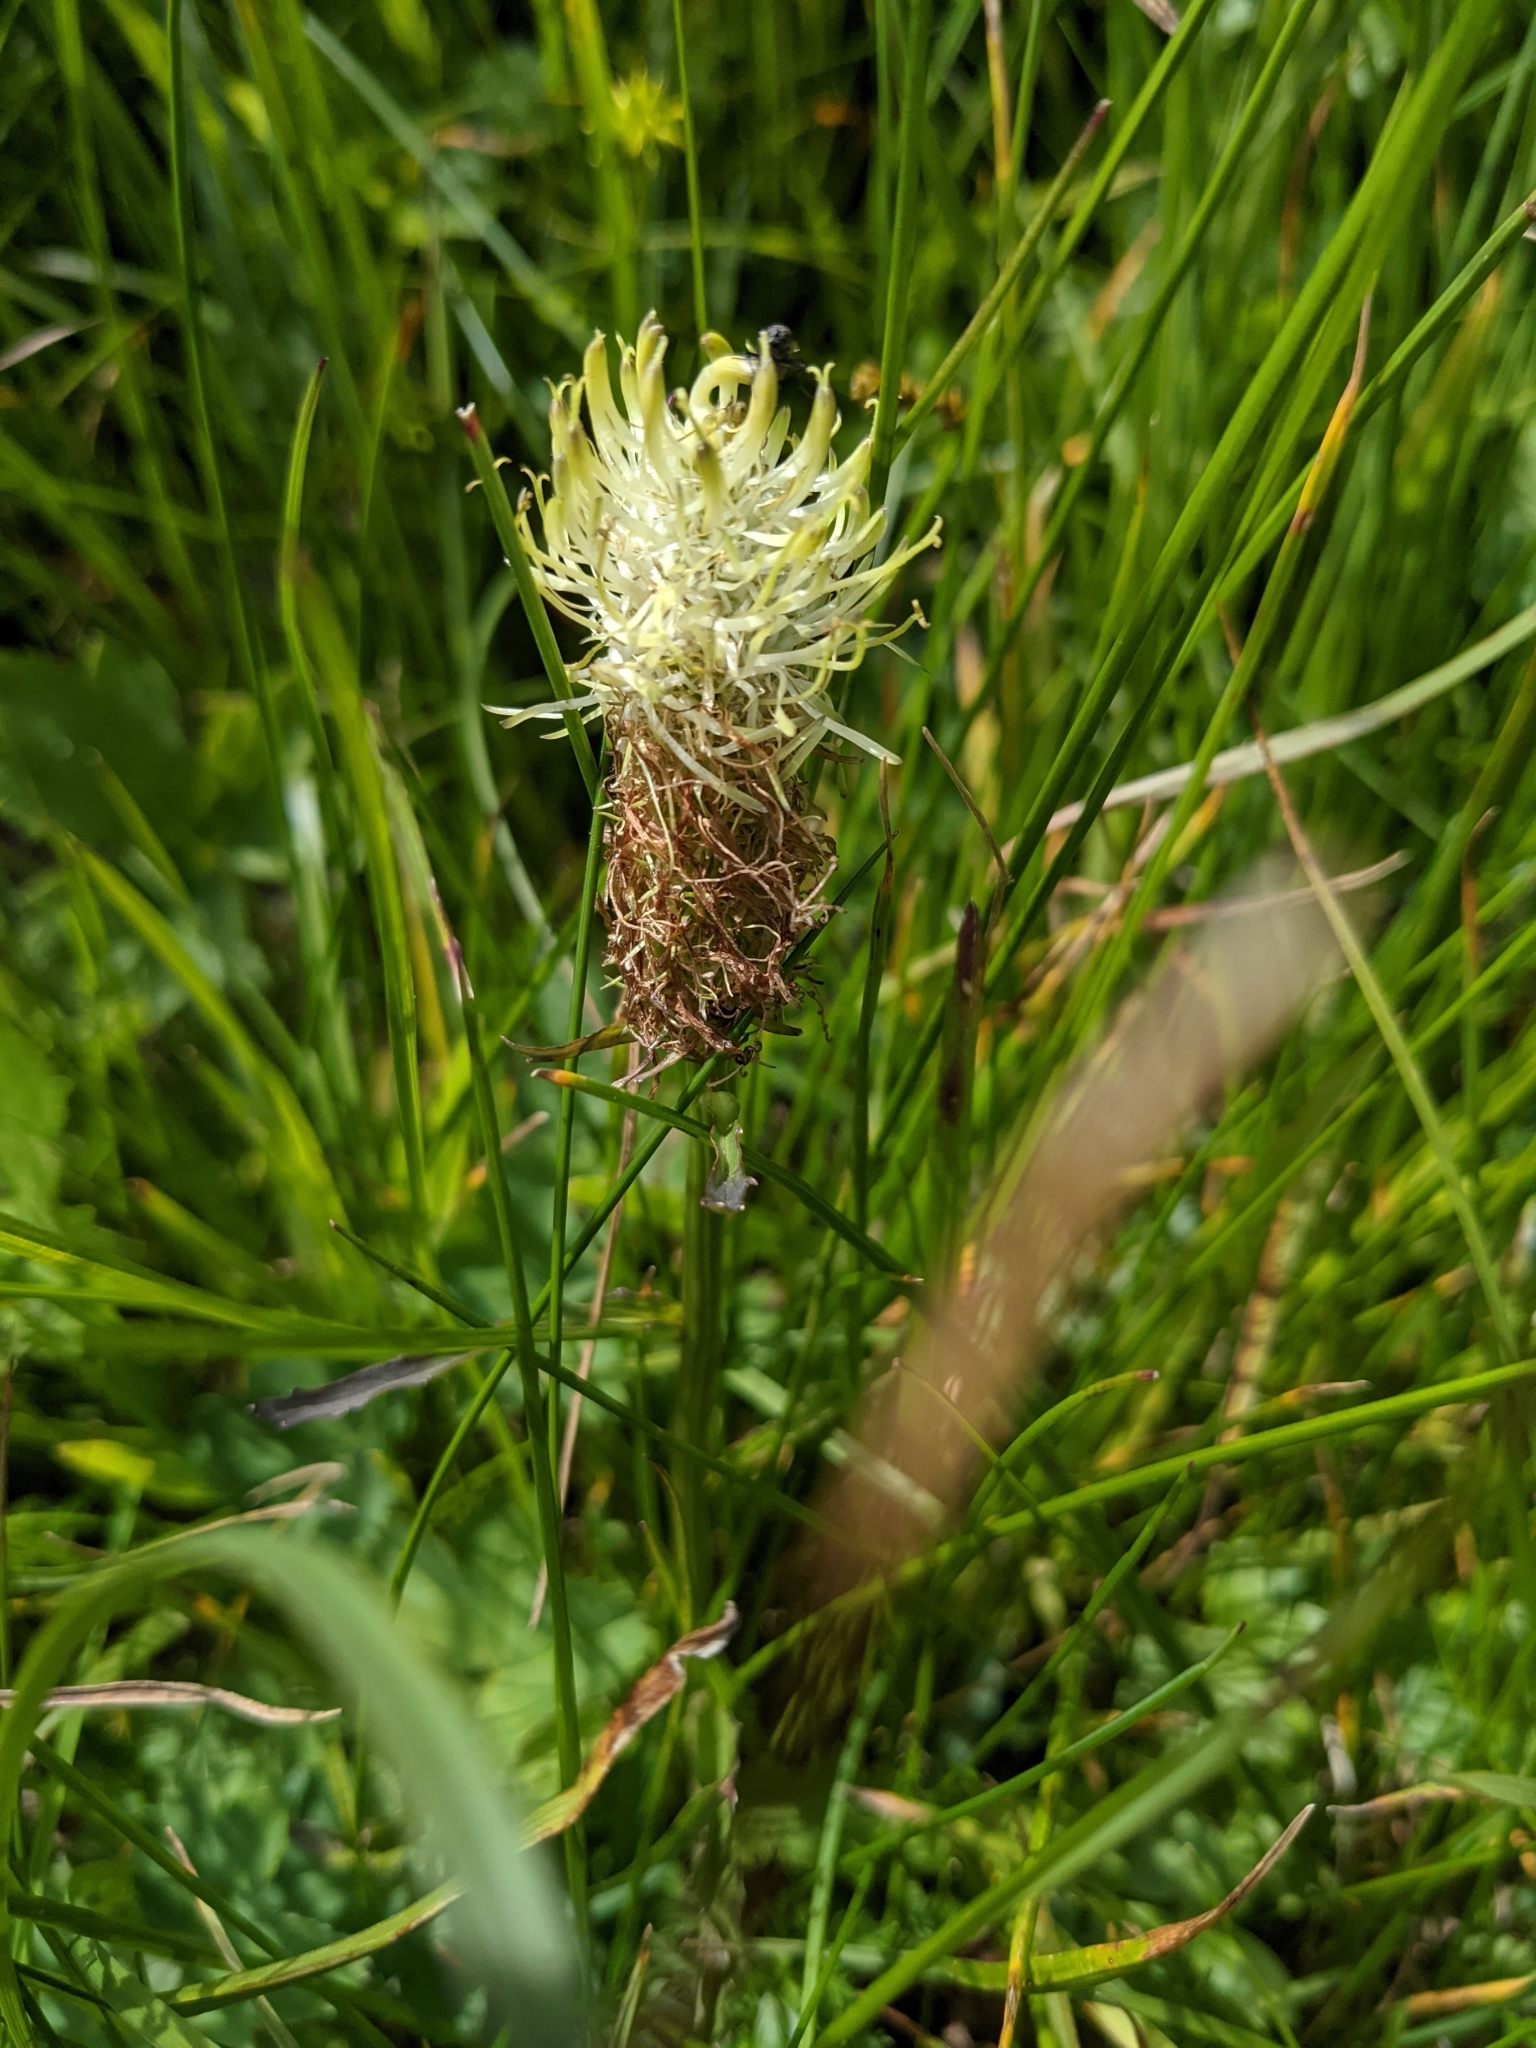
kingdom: Plantae
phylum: Tracheophyta
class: Magnoliopsida
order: Asterales
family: Campanulaceae
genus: Phyteuma
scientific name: Phyteuma spicatum
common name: Spiked rampion
